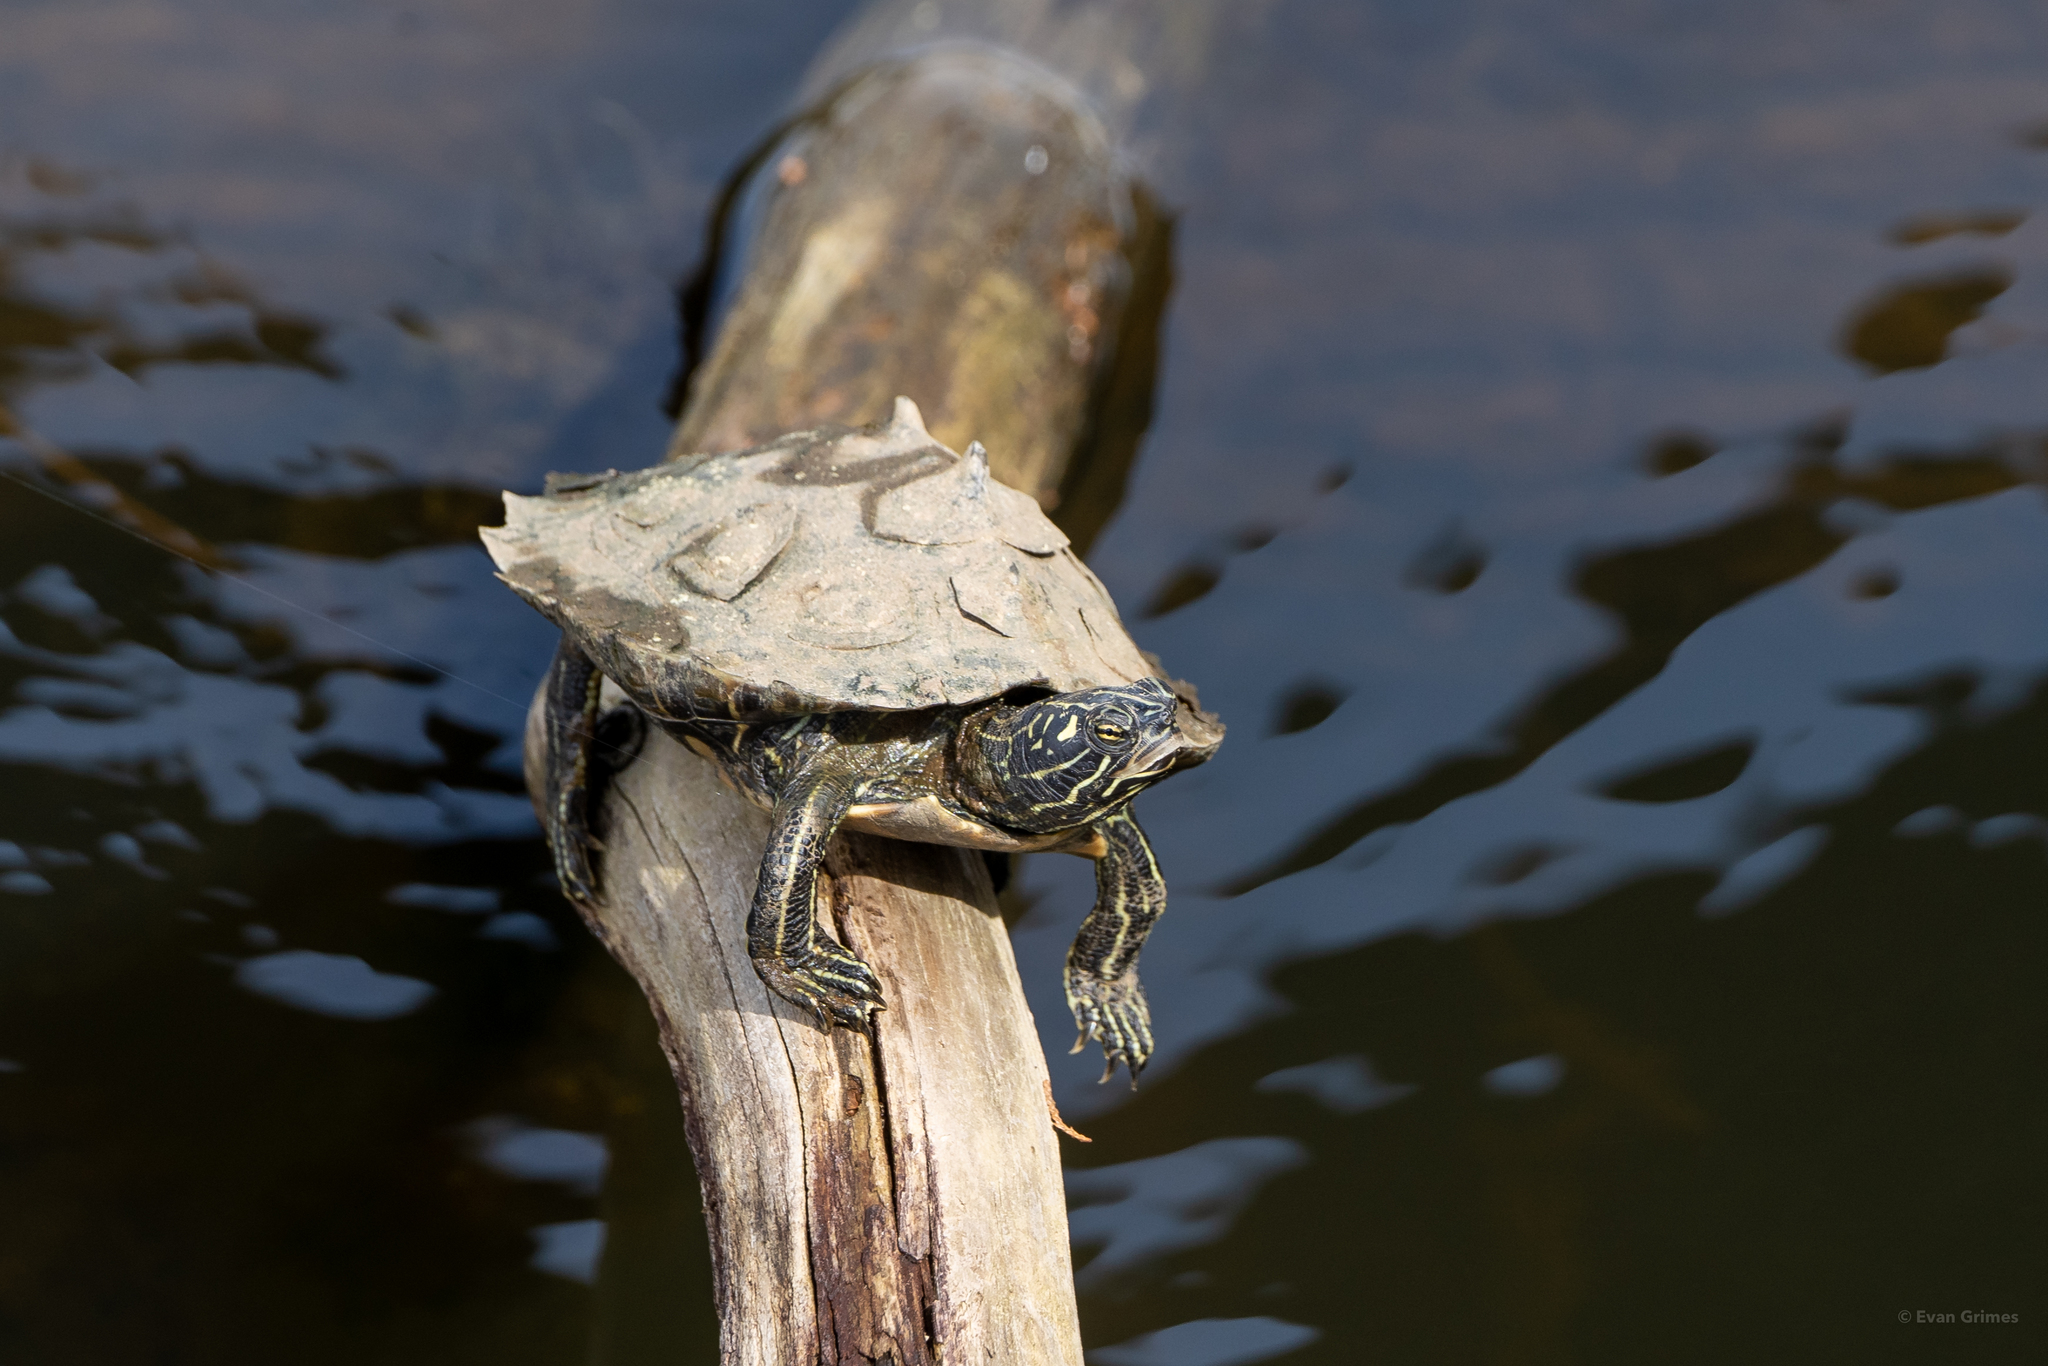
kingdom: Animalia
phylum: Chordata
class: Testudines
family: Emydidae
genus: Graptemys
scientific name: Graptemys nigrinoda
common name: Black-knobbed map turtle
